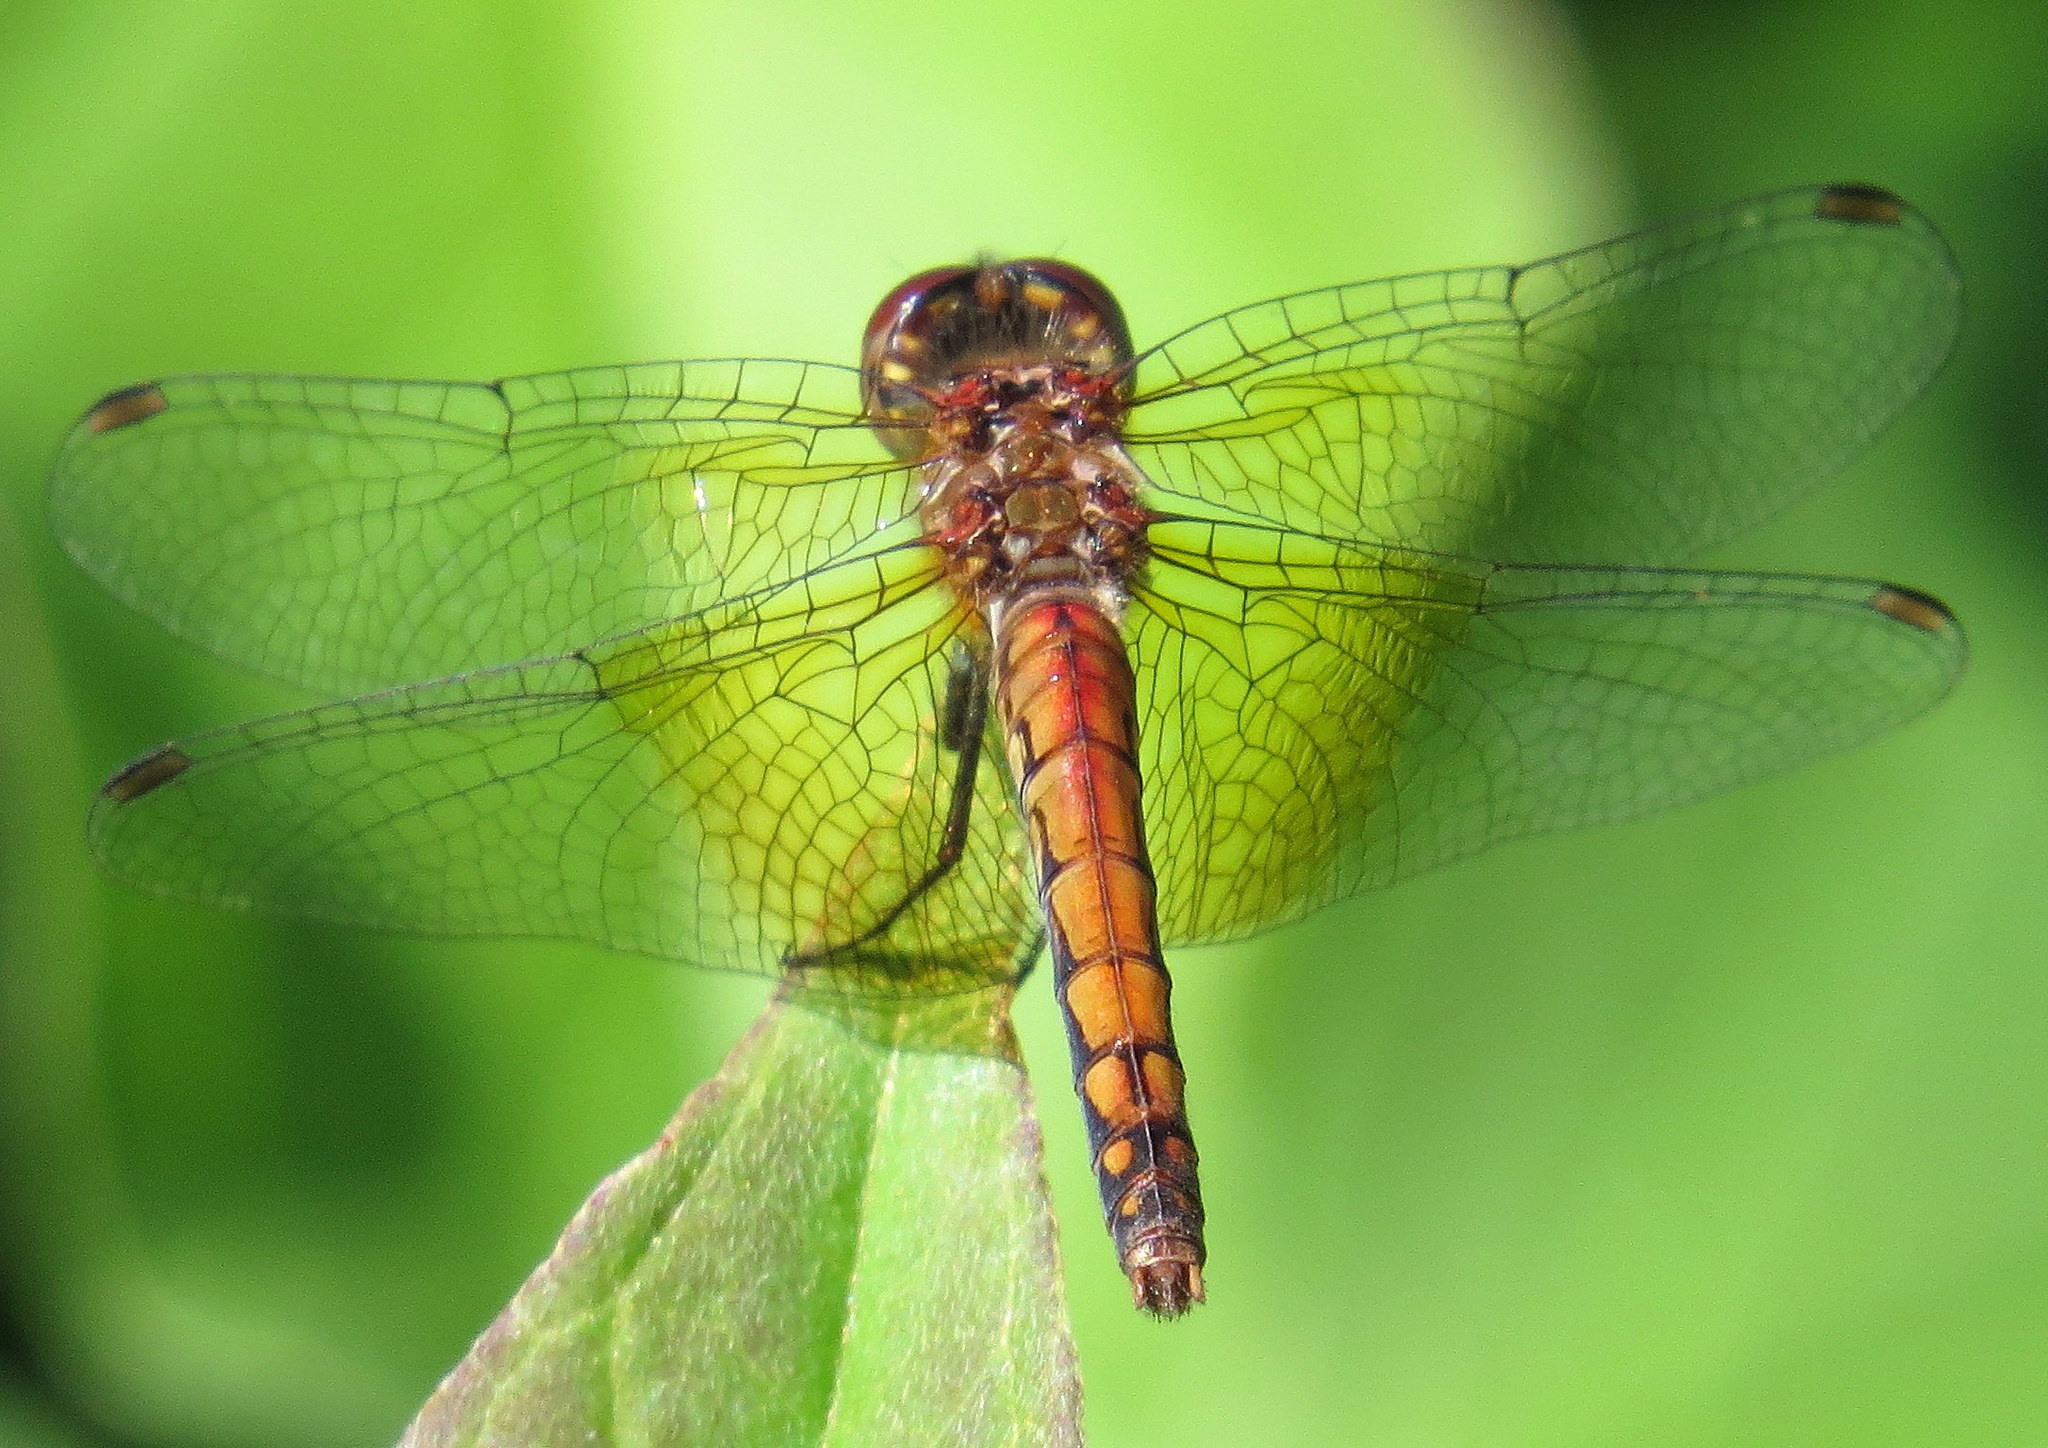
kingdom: Animalia
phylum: Arthropoda
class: Insecta
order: Odonata
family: Libellulidae
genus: Sympetrum
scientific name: Sympetrum semicinctum
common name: Band-winged meadowhawk
